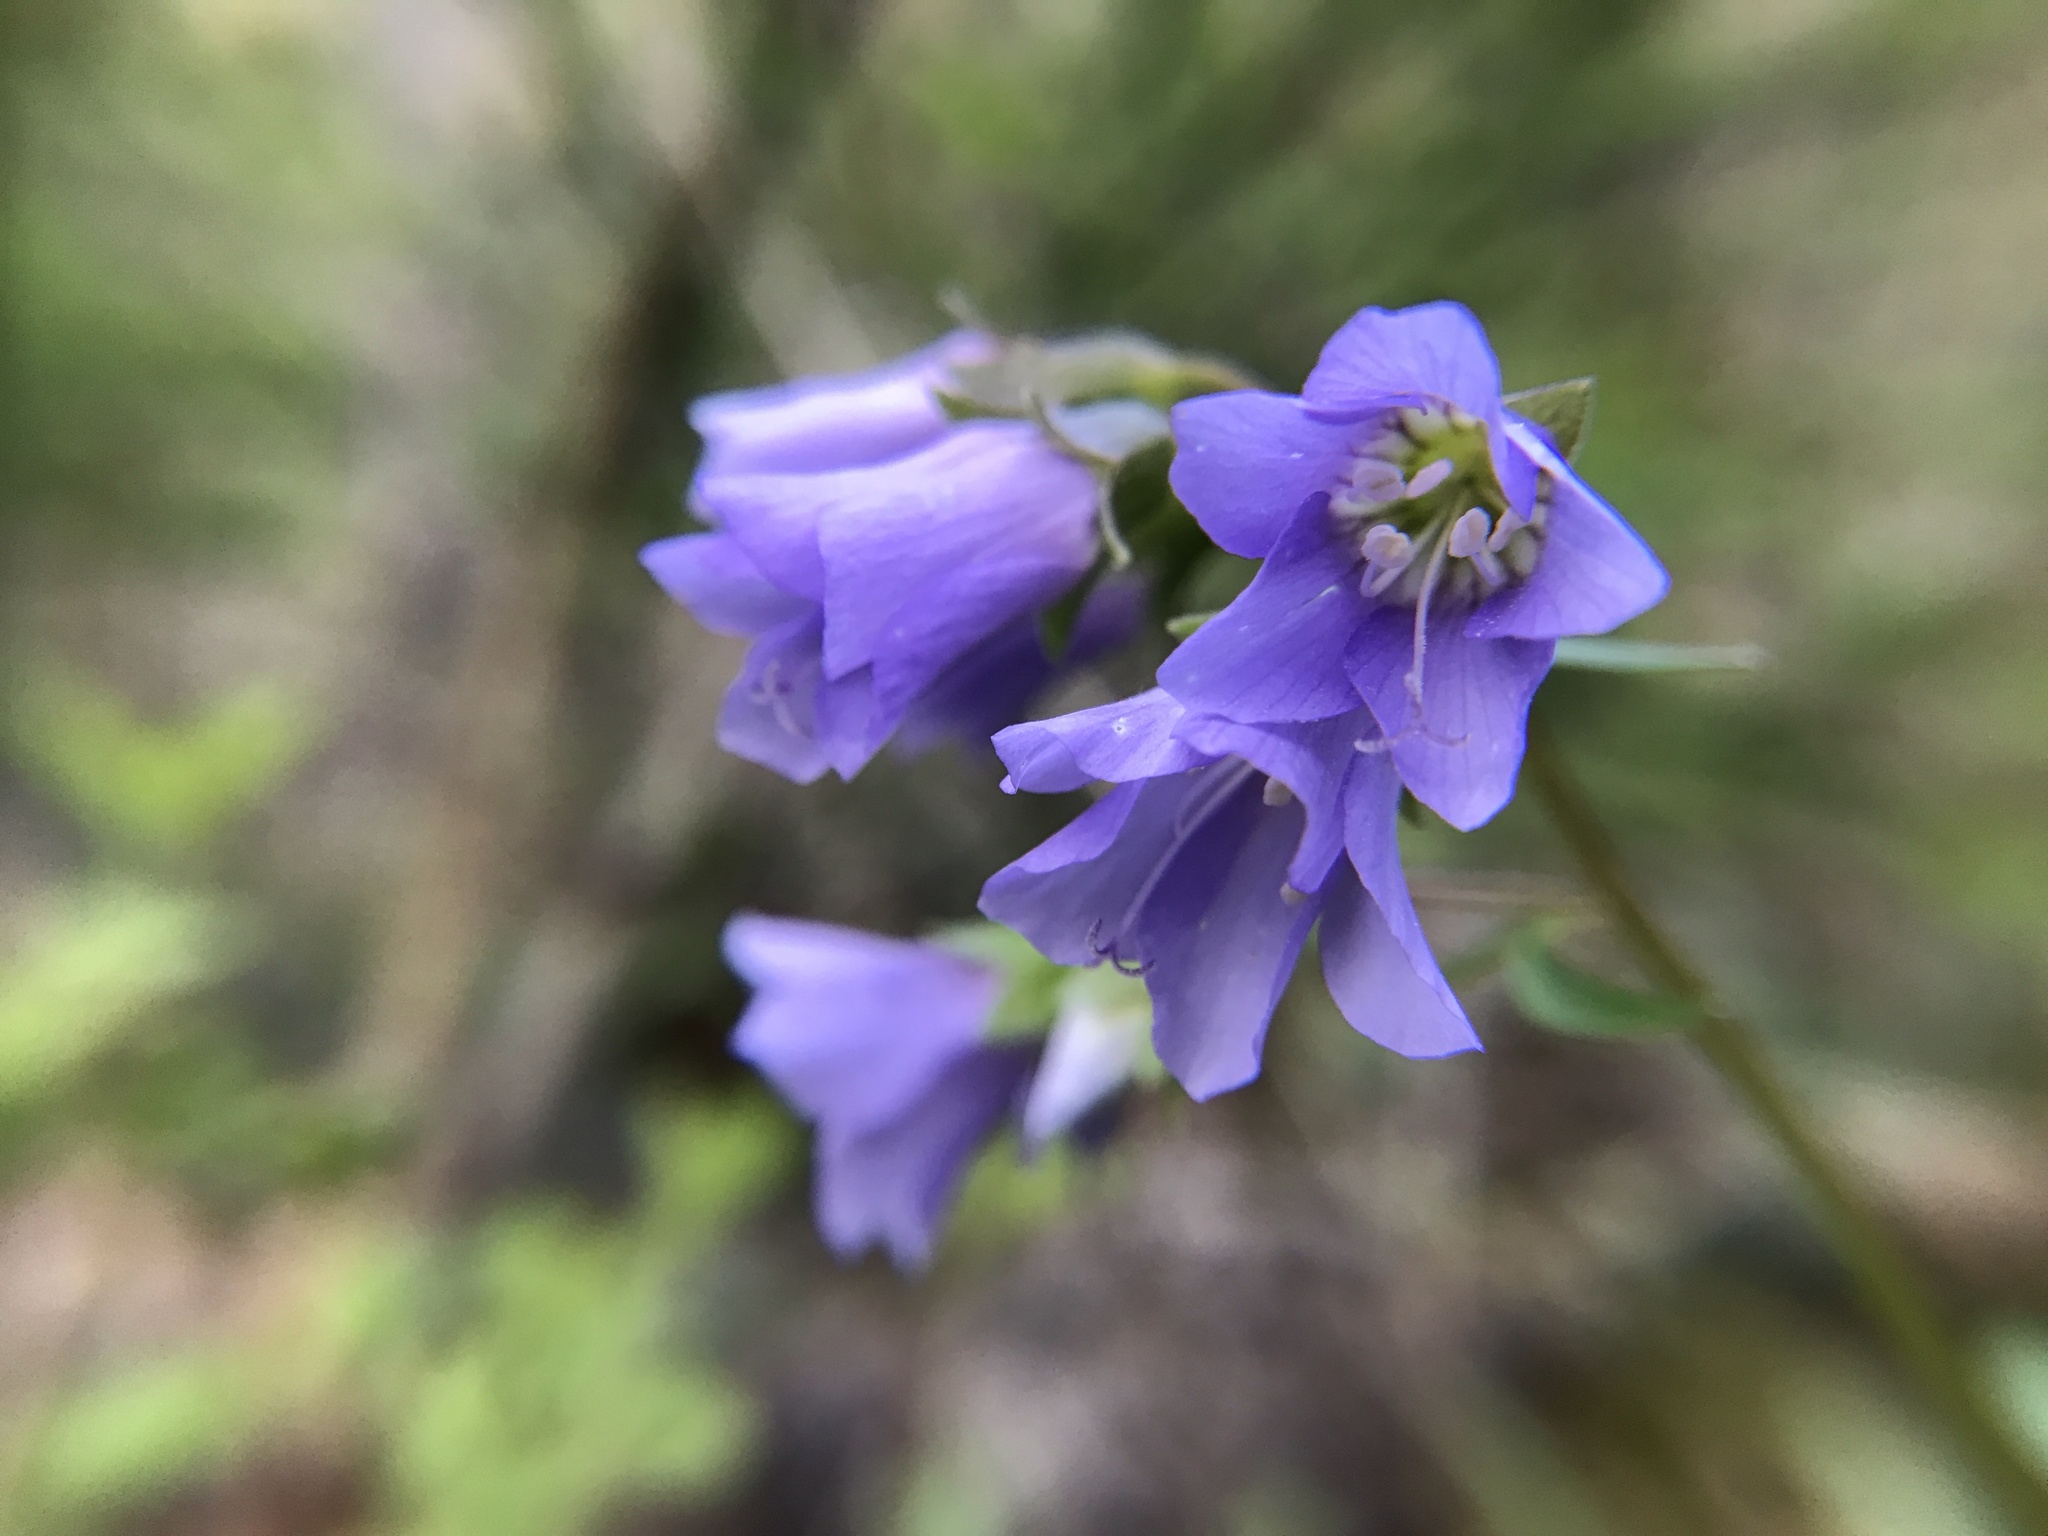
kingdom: Plantae
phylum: Tracheophyta
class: Magnoliopsida
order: Ericales
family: Polemoniaceae
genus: Polemonium
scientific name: Polemonium reptans
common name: Creeping jacob's-ladder
